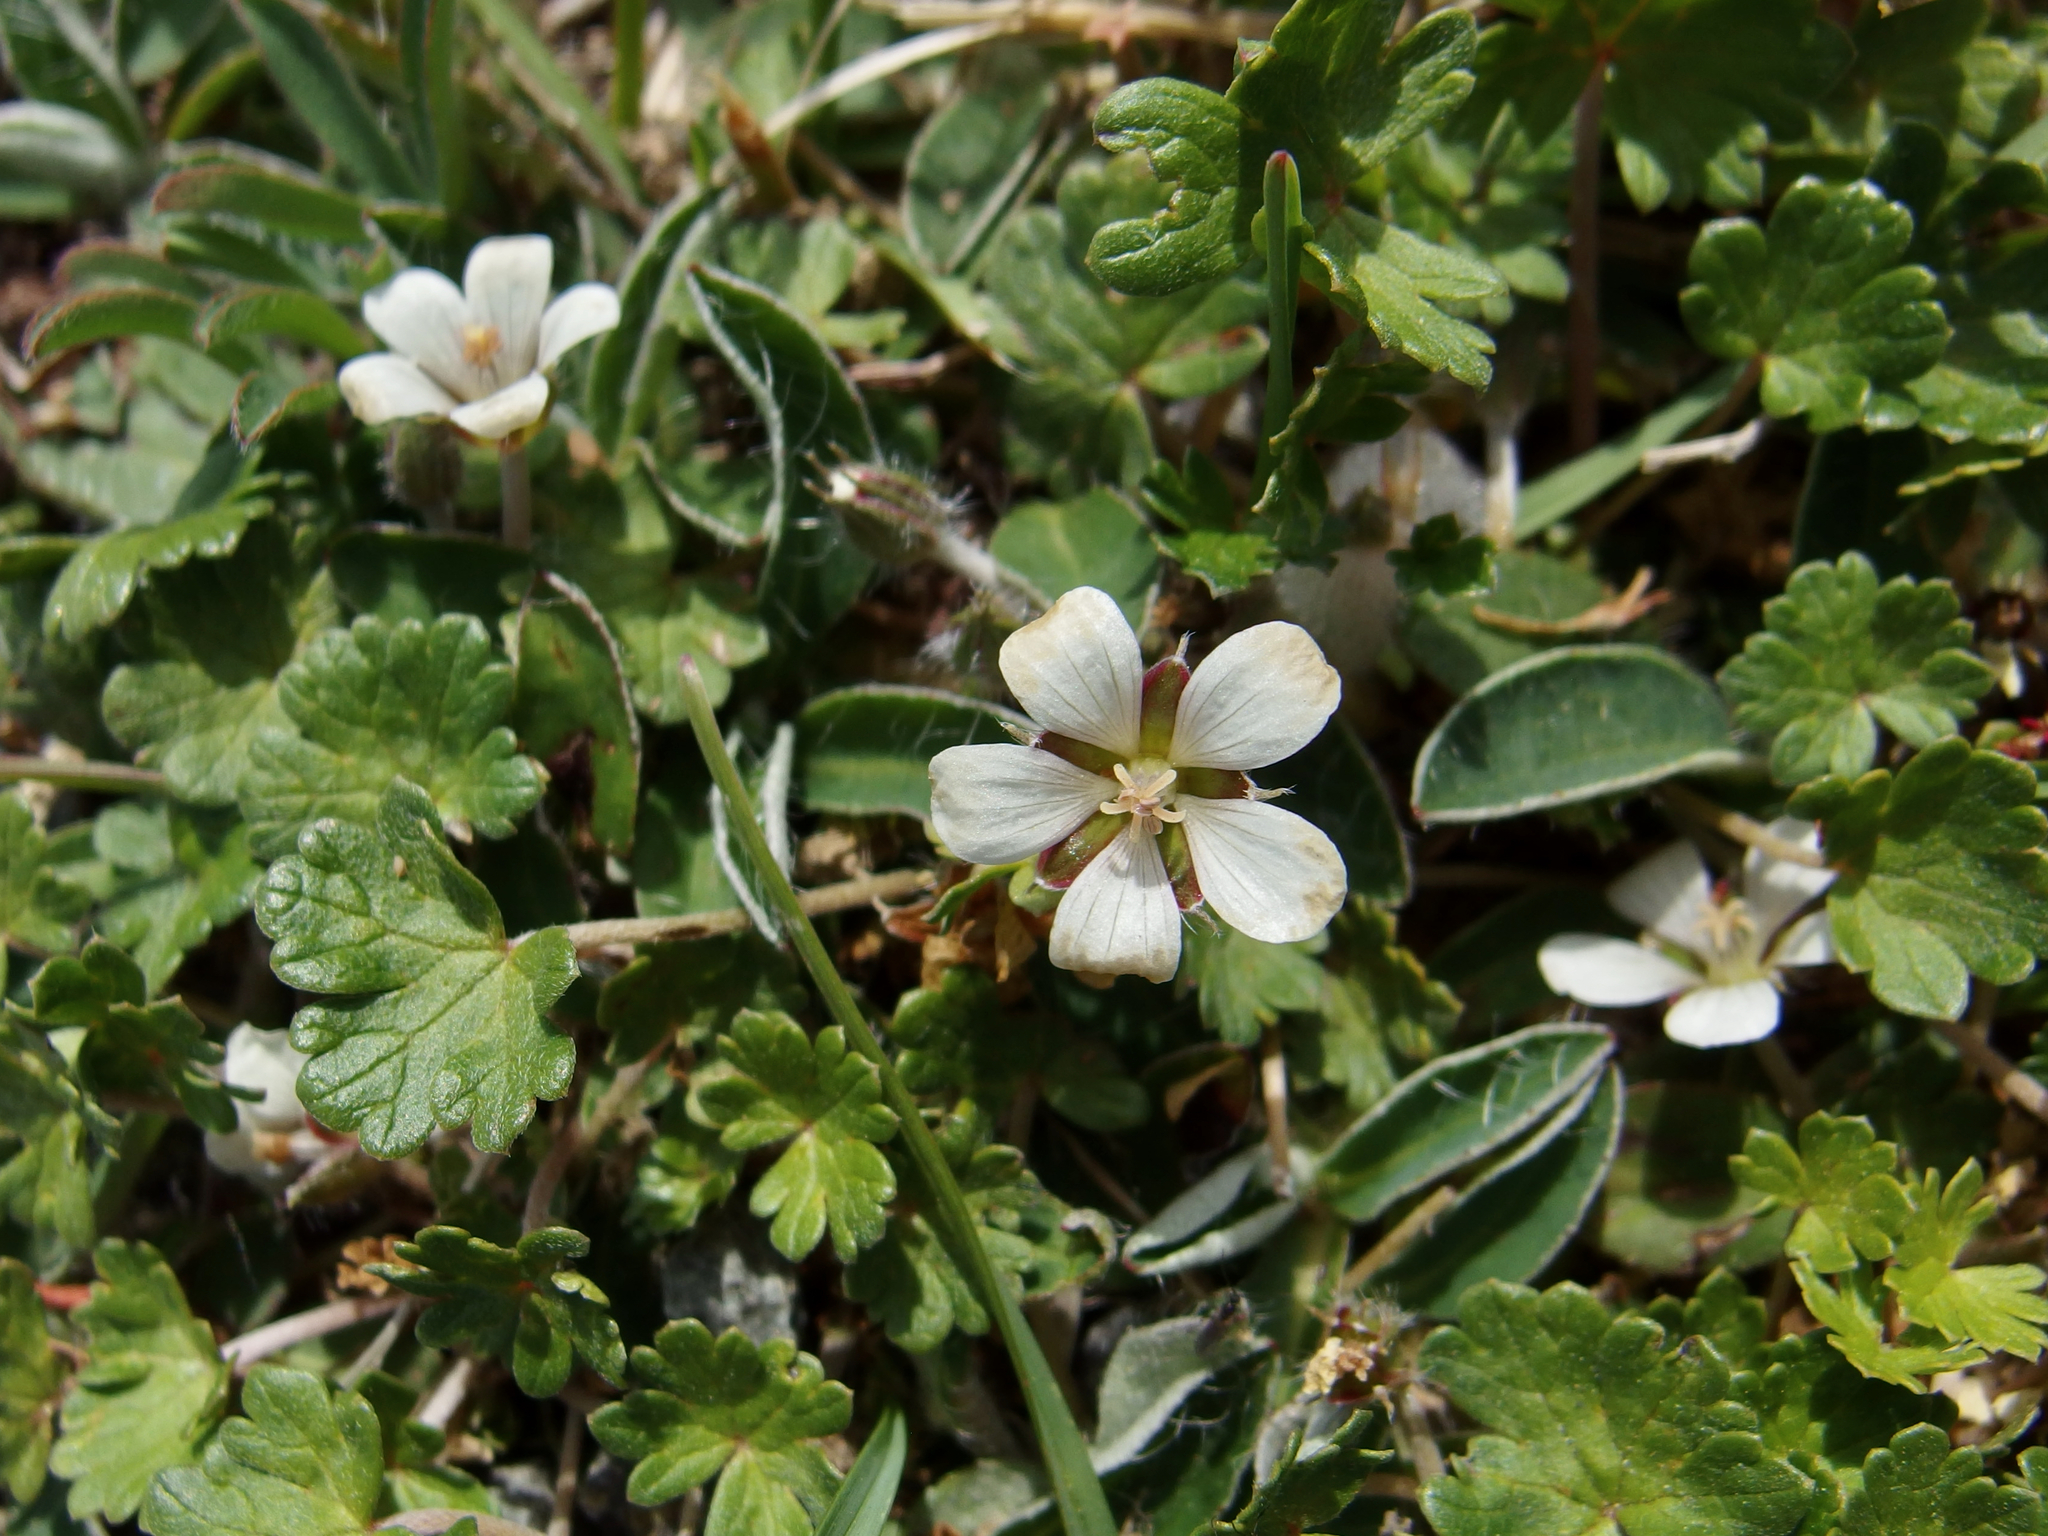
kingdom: Plantae
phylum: Tracheophyta
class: Magnoliopsida
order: Geraniales
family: Geraniaceae
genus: Geranium
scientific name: Geranium brevicaule
